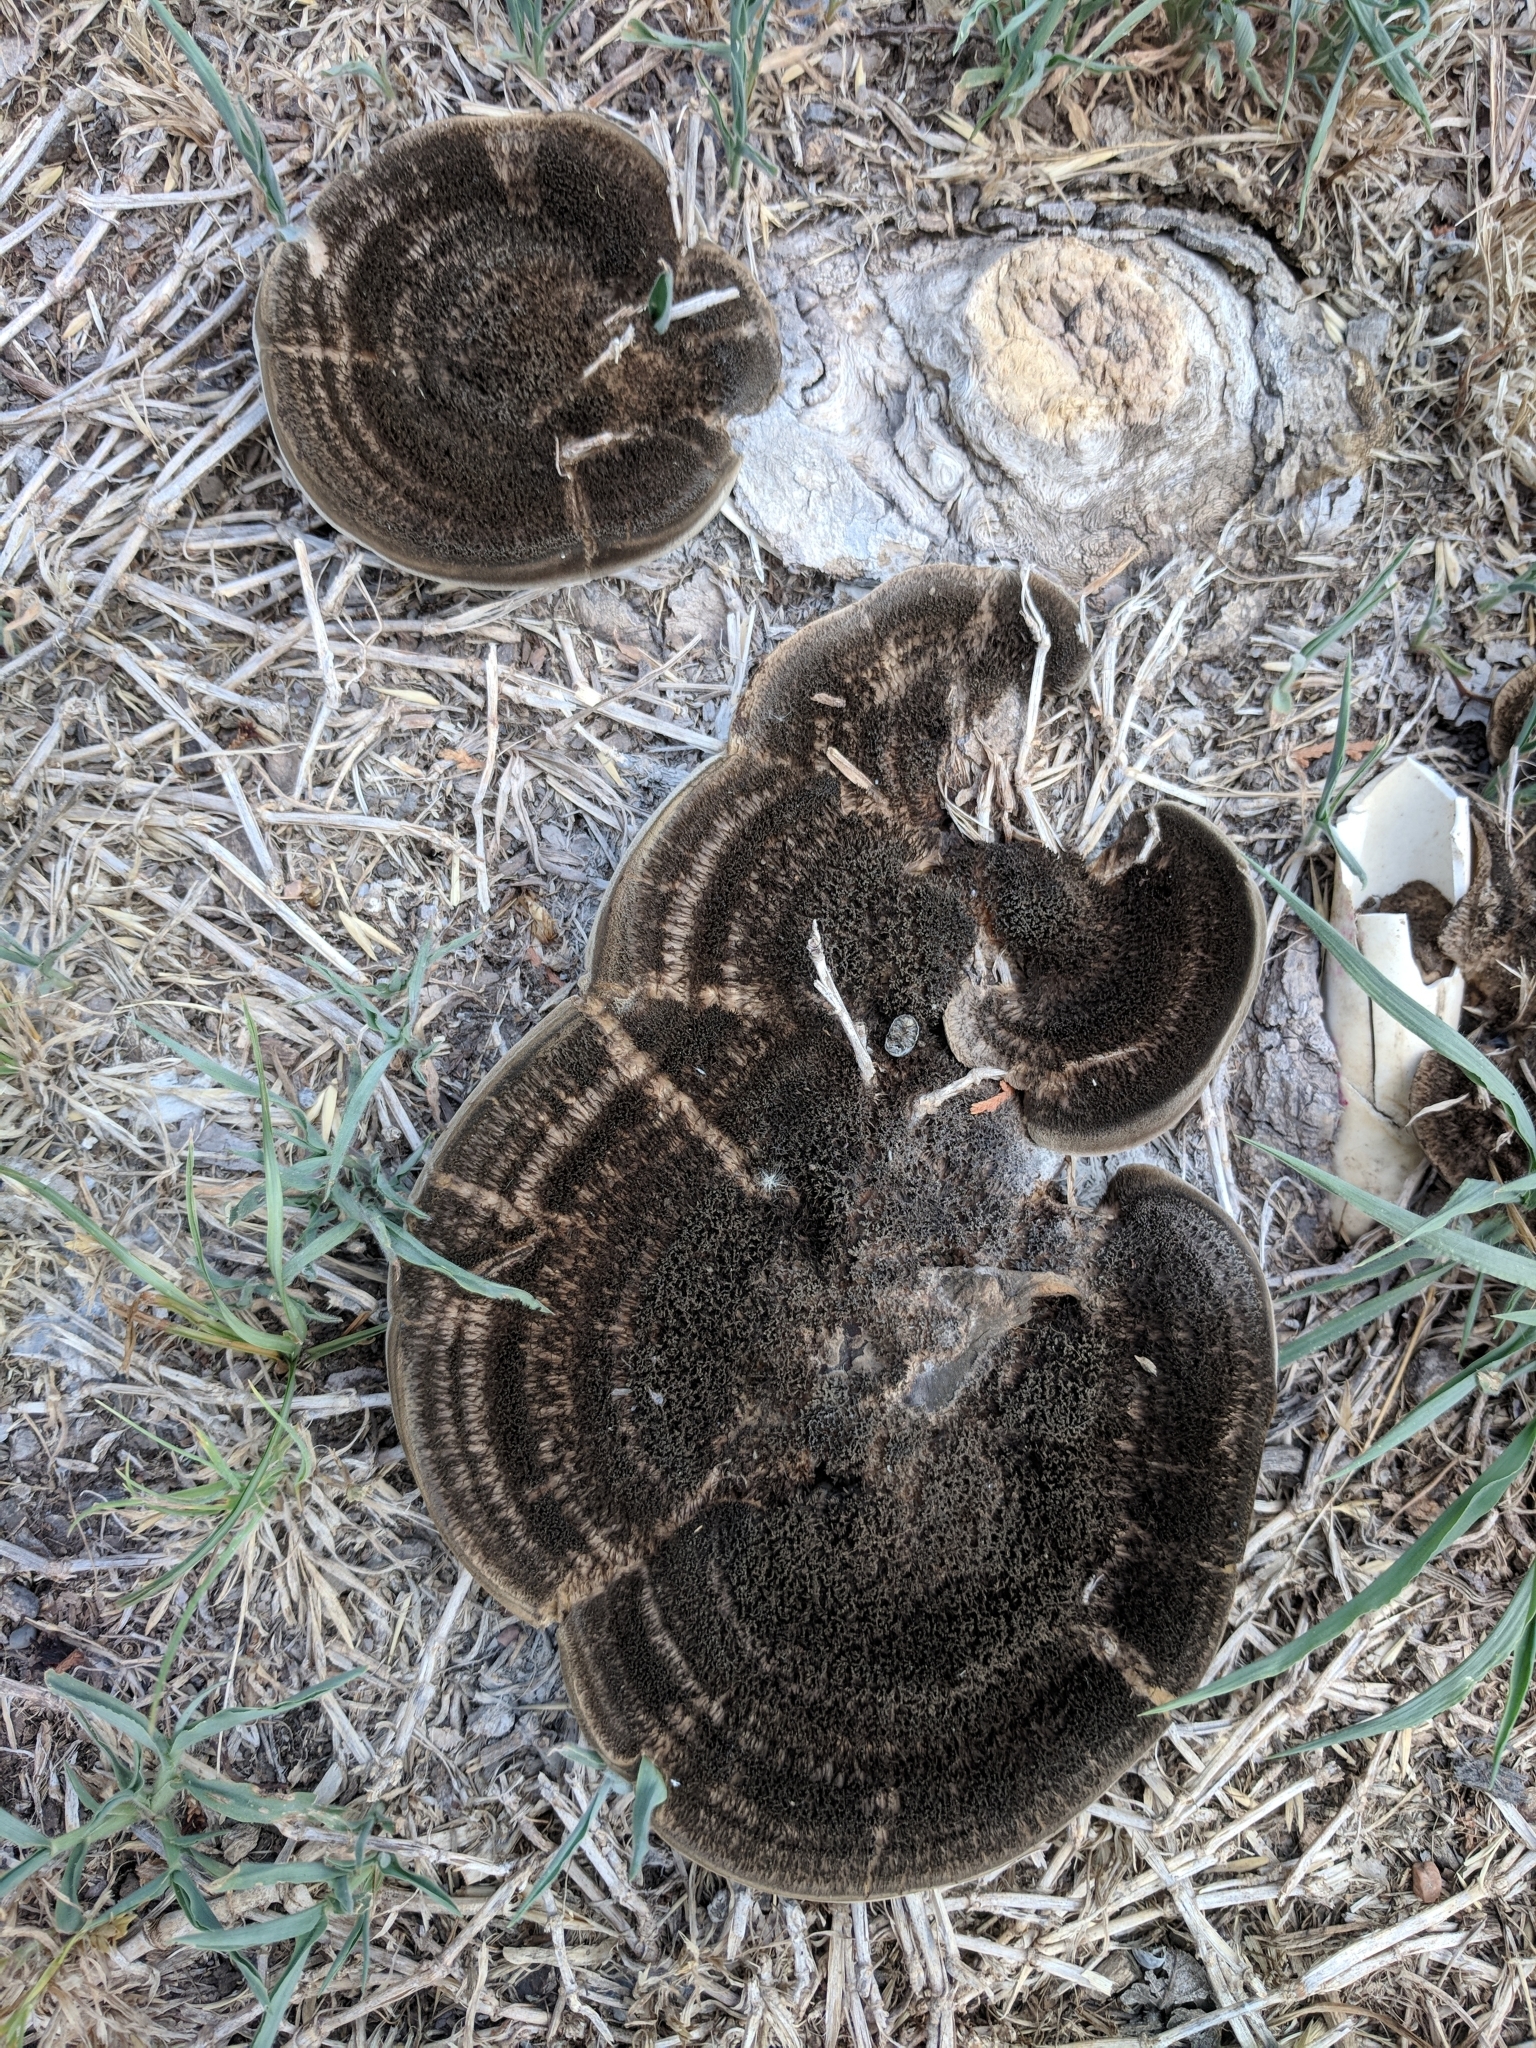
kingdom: Fungi
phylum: Basidiomycota
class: Agaricomycetes
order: Polyporales
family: Cerrenaceae
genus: Cerrena
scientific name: Cerrena hydnoides
